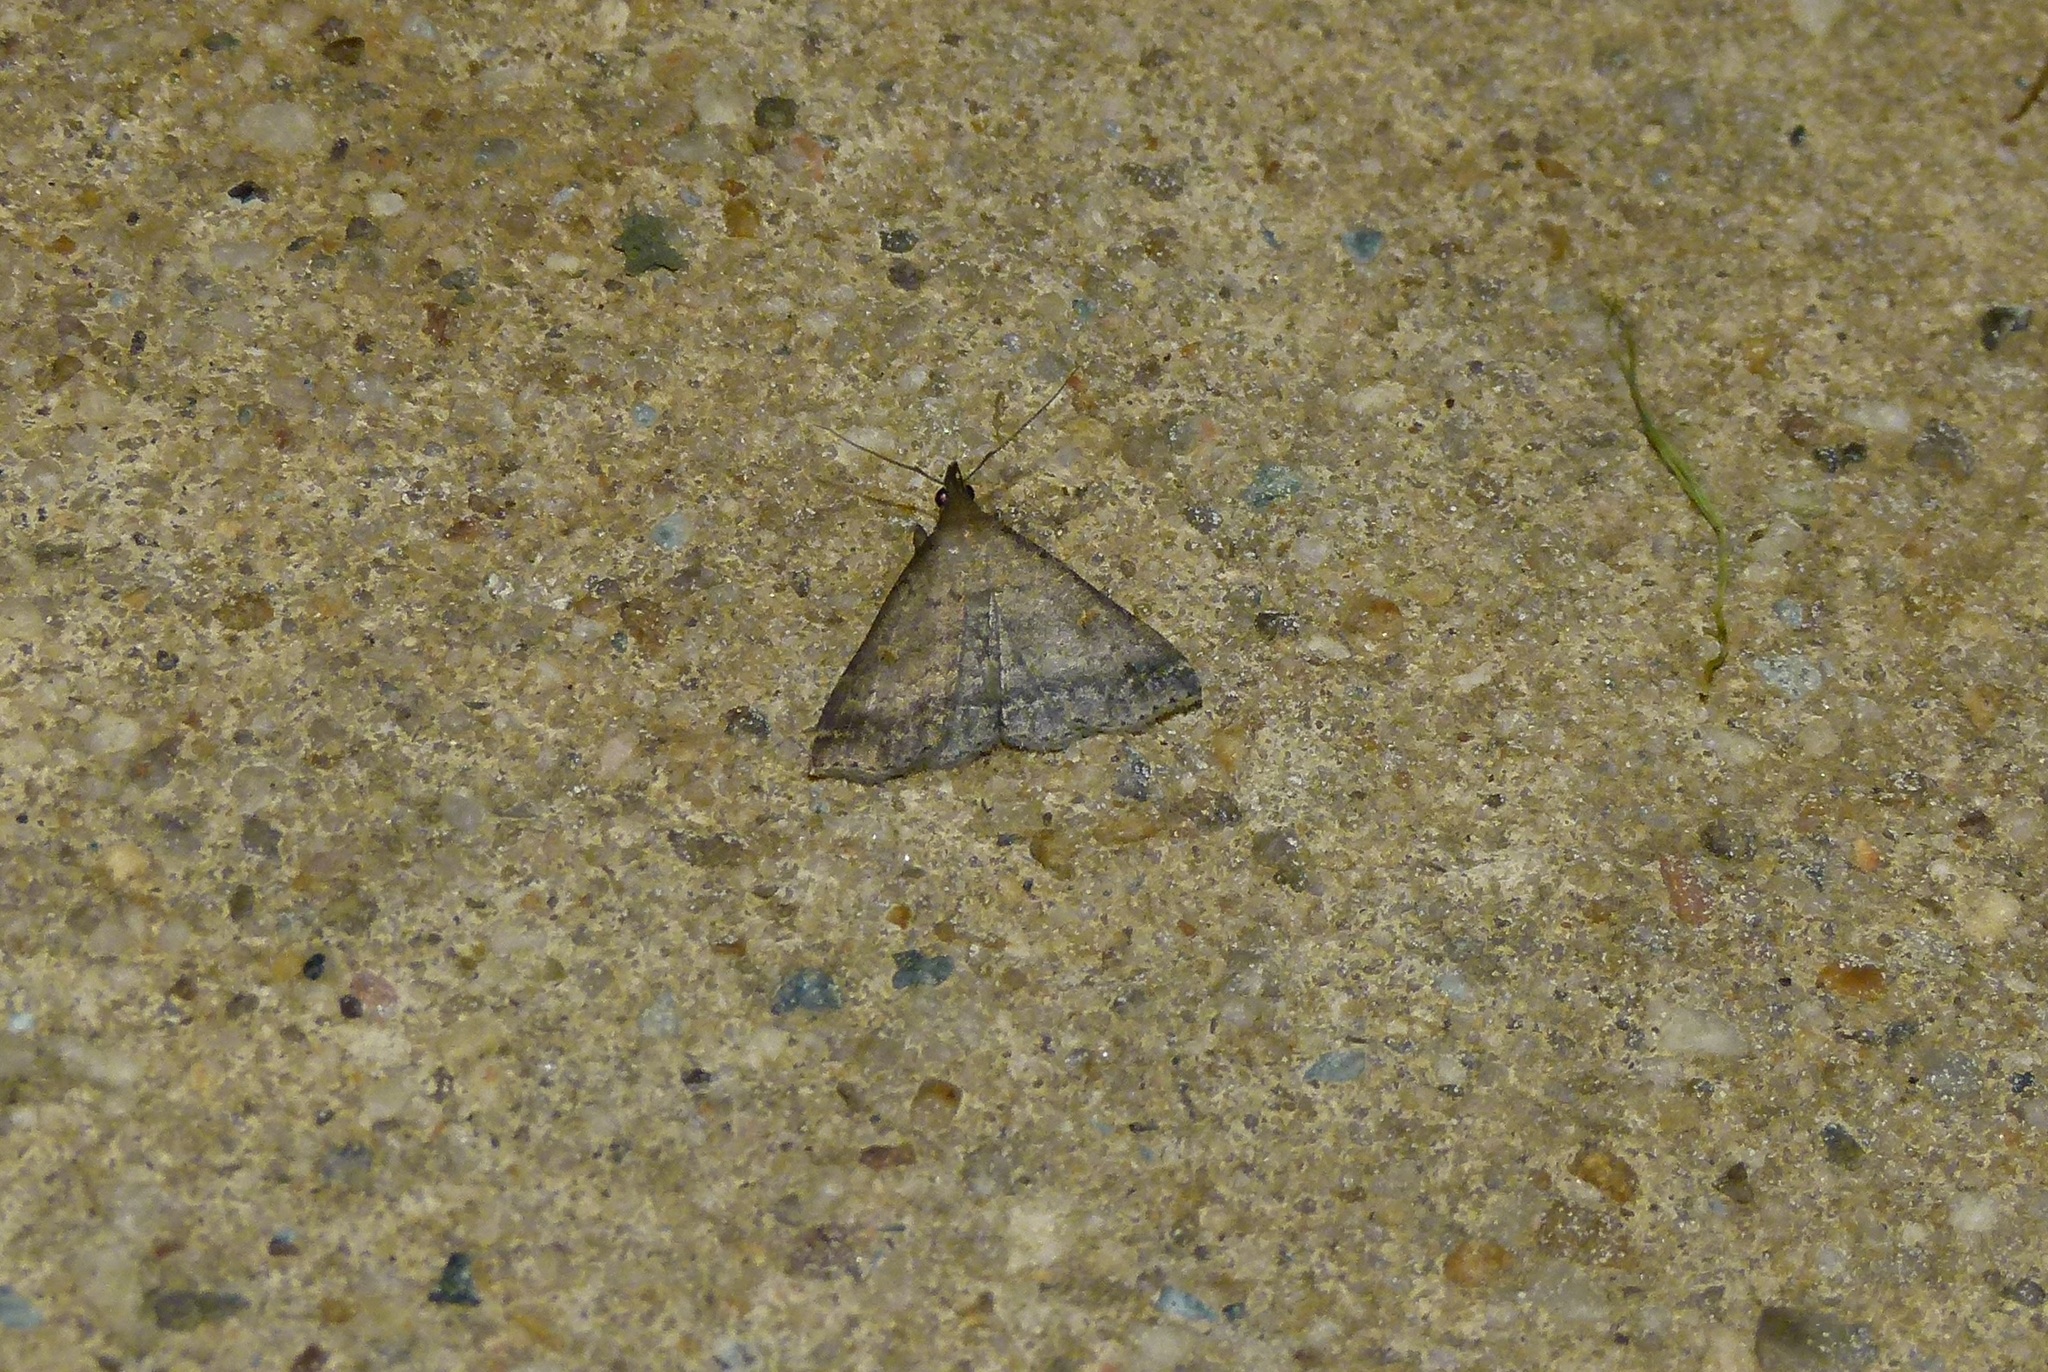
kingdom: Animalia
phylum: Arthropoda
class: Insecta
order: Lepidoptera
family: Erebidae
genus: Tetanolita
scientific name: Tetanolita floridana
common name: Florida tetanolita moth
